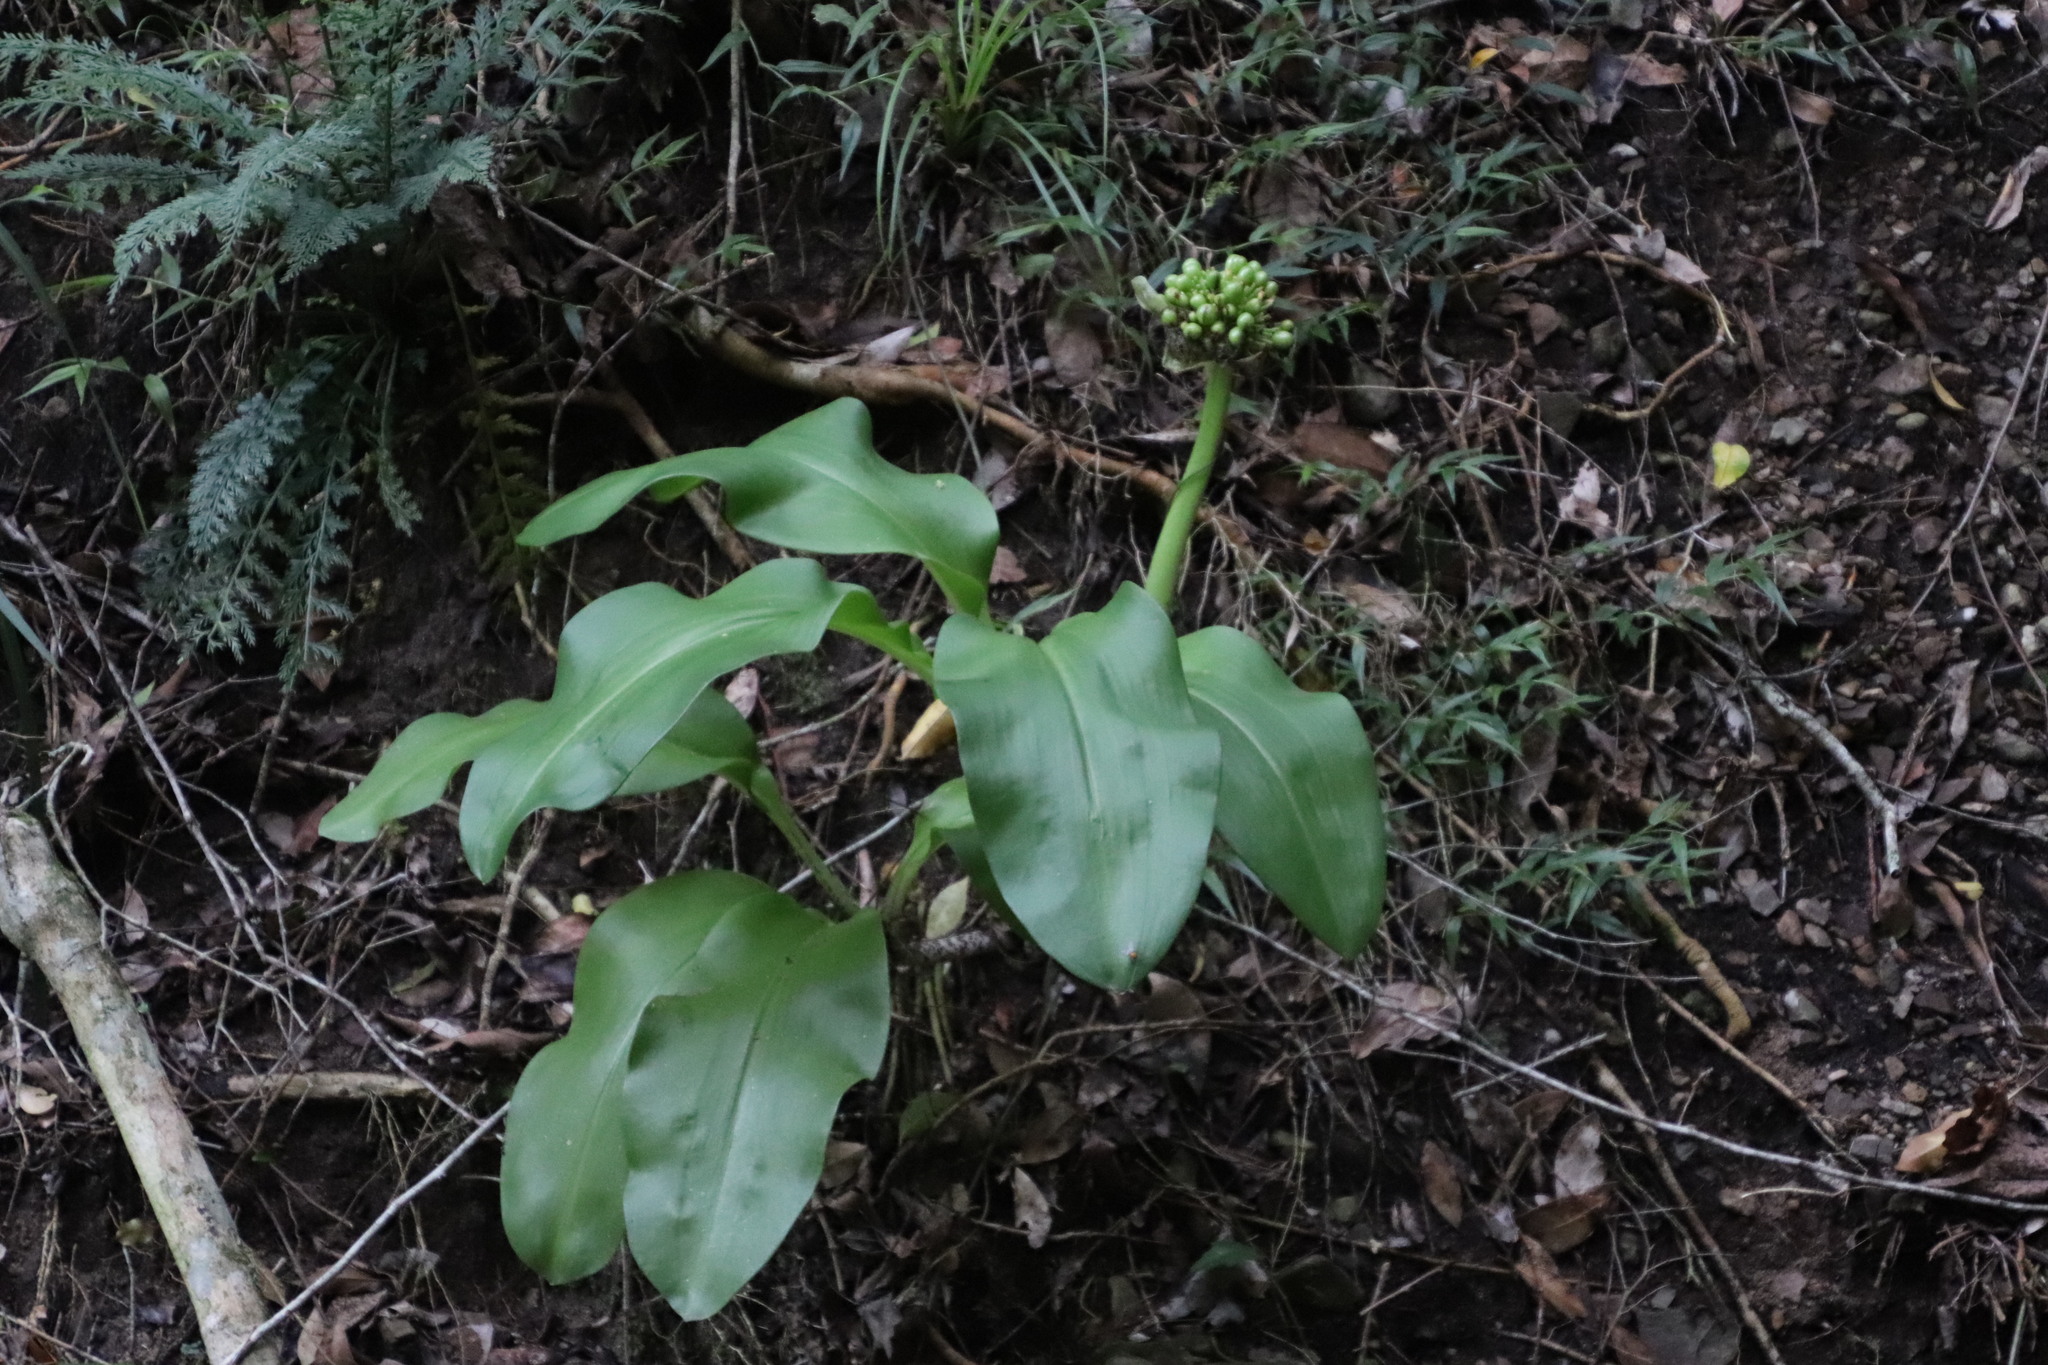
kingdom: Plantae
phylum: Tracheophyta
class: Liliopsida
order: Asparagales
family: Amaryllidaceae
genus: Scadoxus
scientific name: Scadoxus puniceus
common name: Royal-paintbrush
